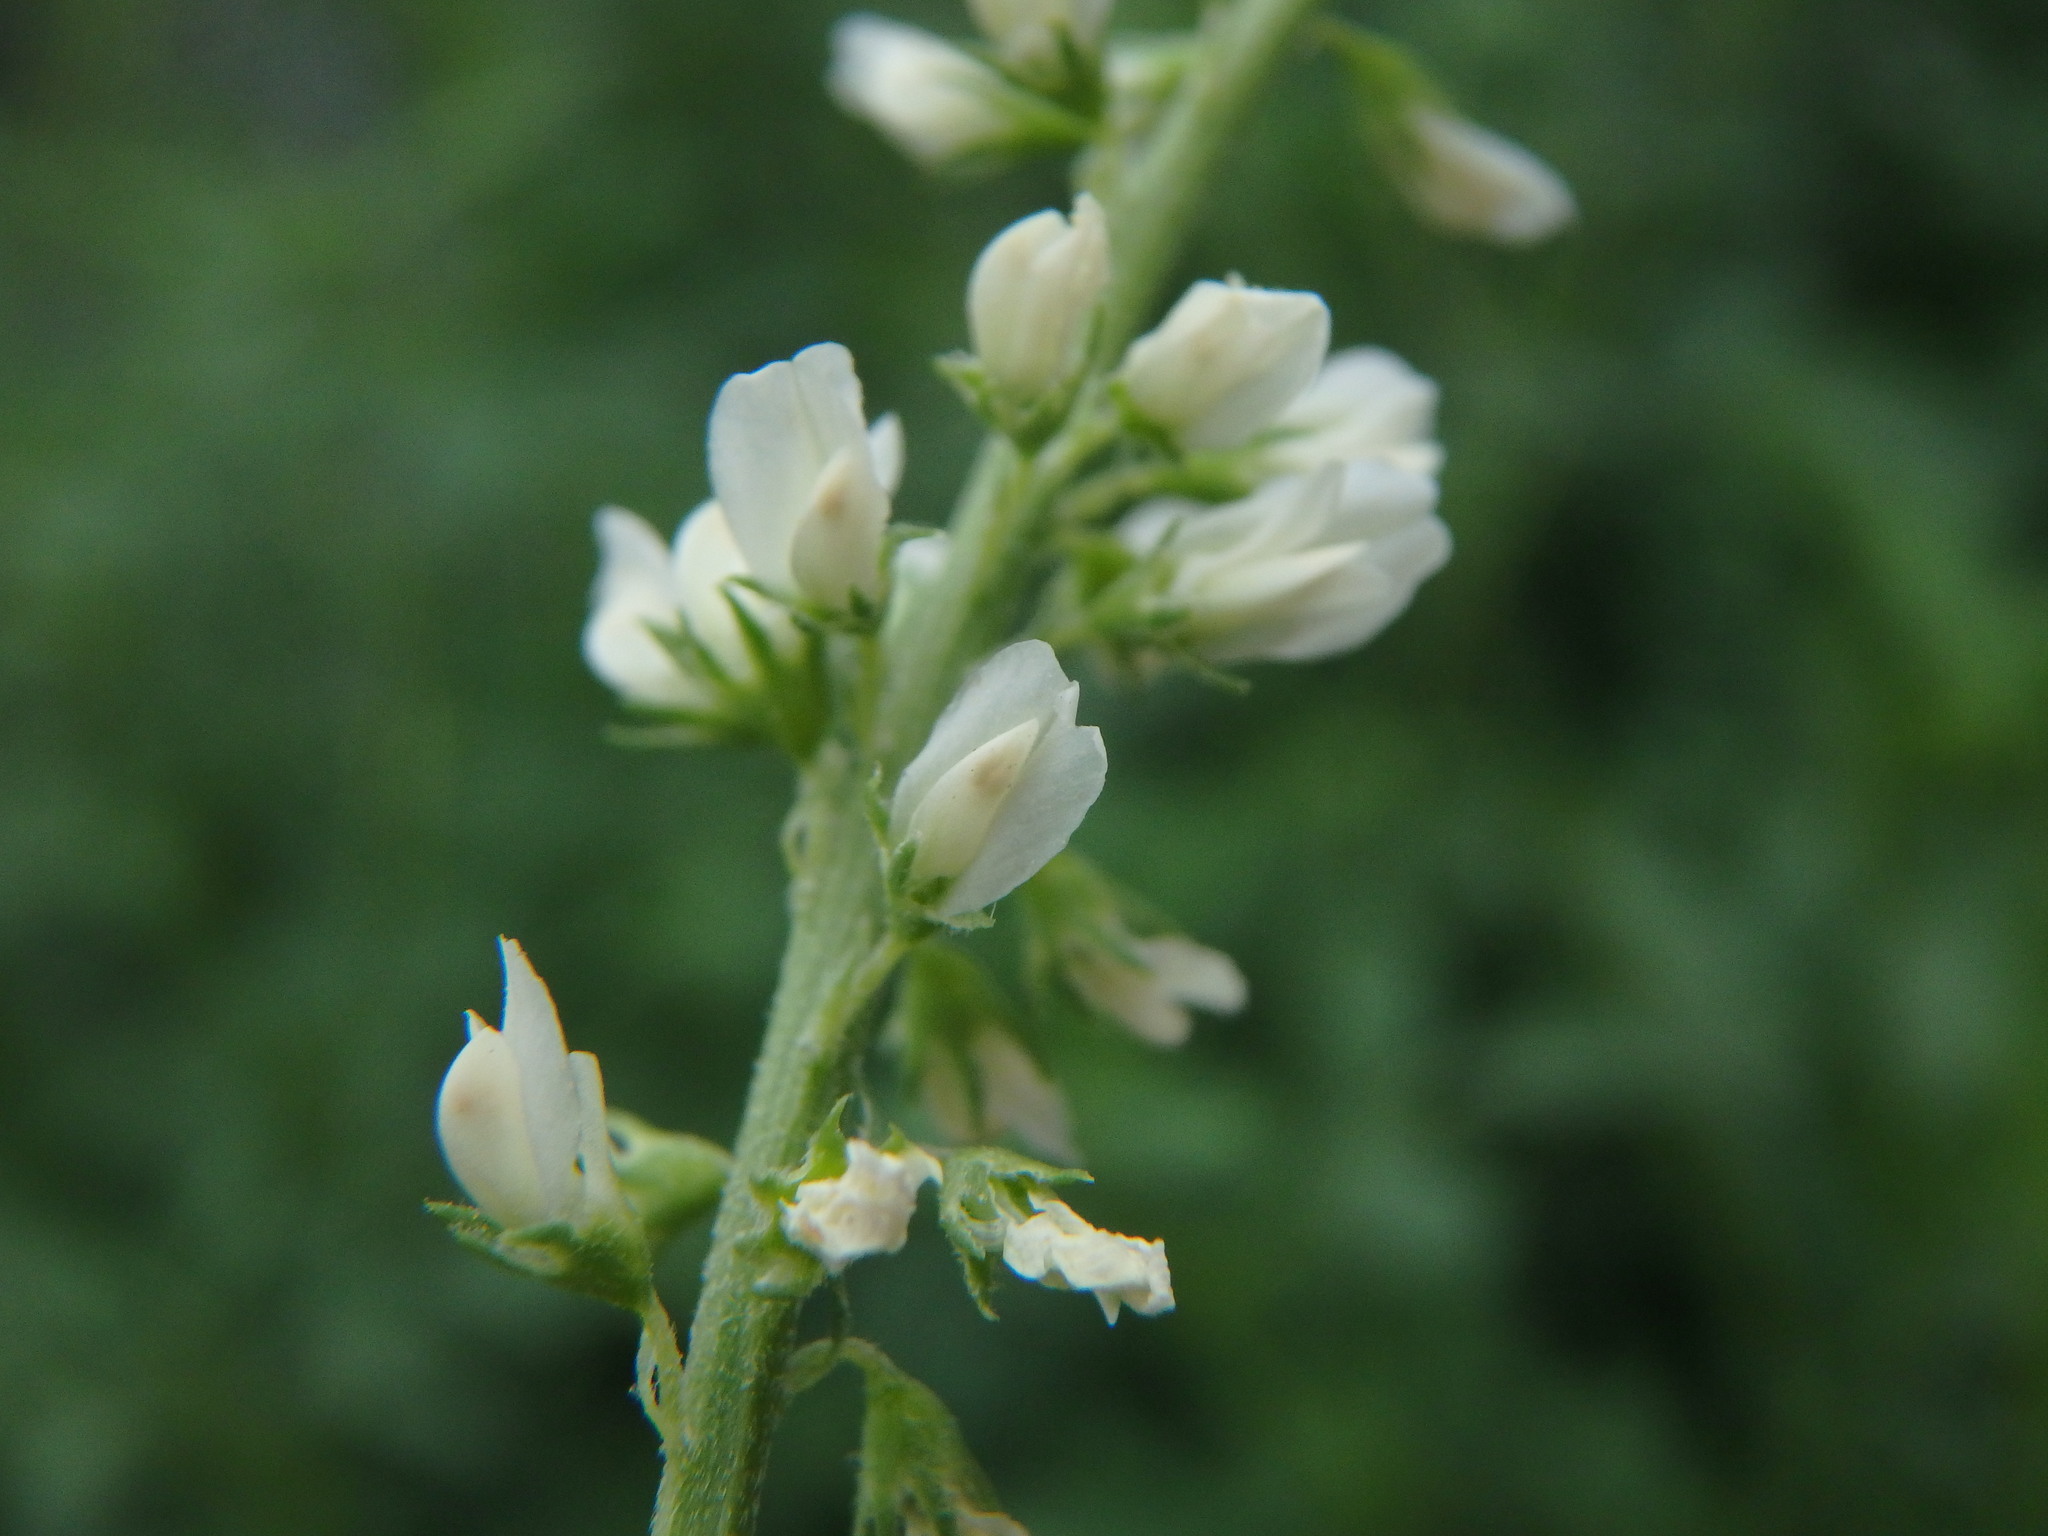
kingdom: Plantae
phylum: Tracheophyta
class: Magnoliopsida
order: Fabales
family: Fabaceae
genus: Melilotus
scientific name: Melilotus albus
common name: White melilot
